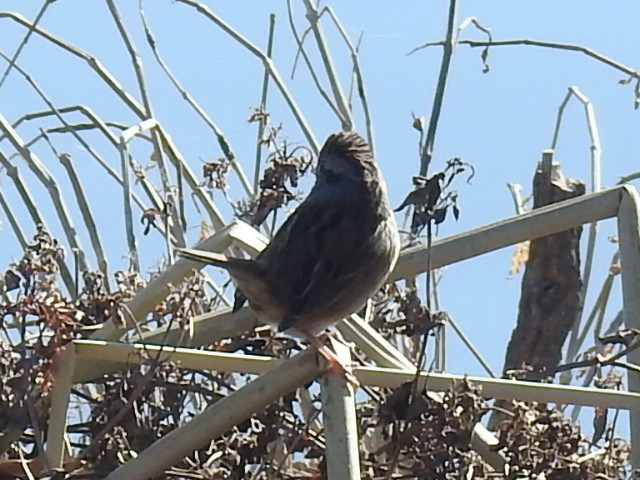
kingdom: Animalia
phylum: Chordata
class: Aves
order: Passeriformes
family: Passerellidae
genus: Melospiza
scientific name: Melospiza georgiana
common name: Swamp sparrow
